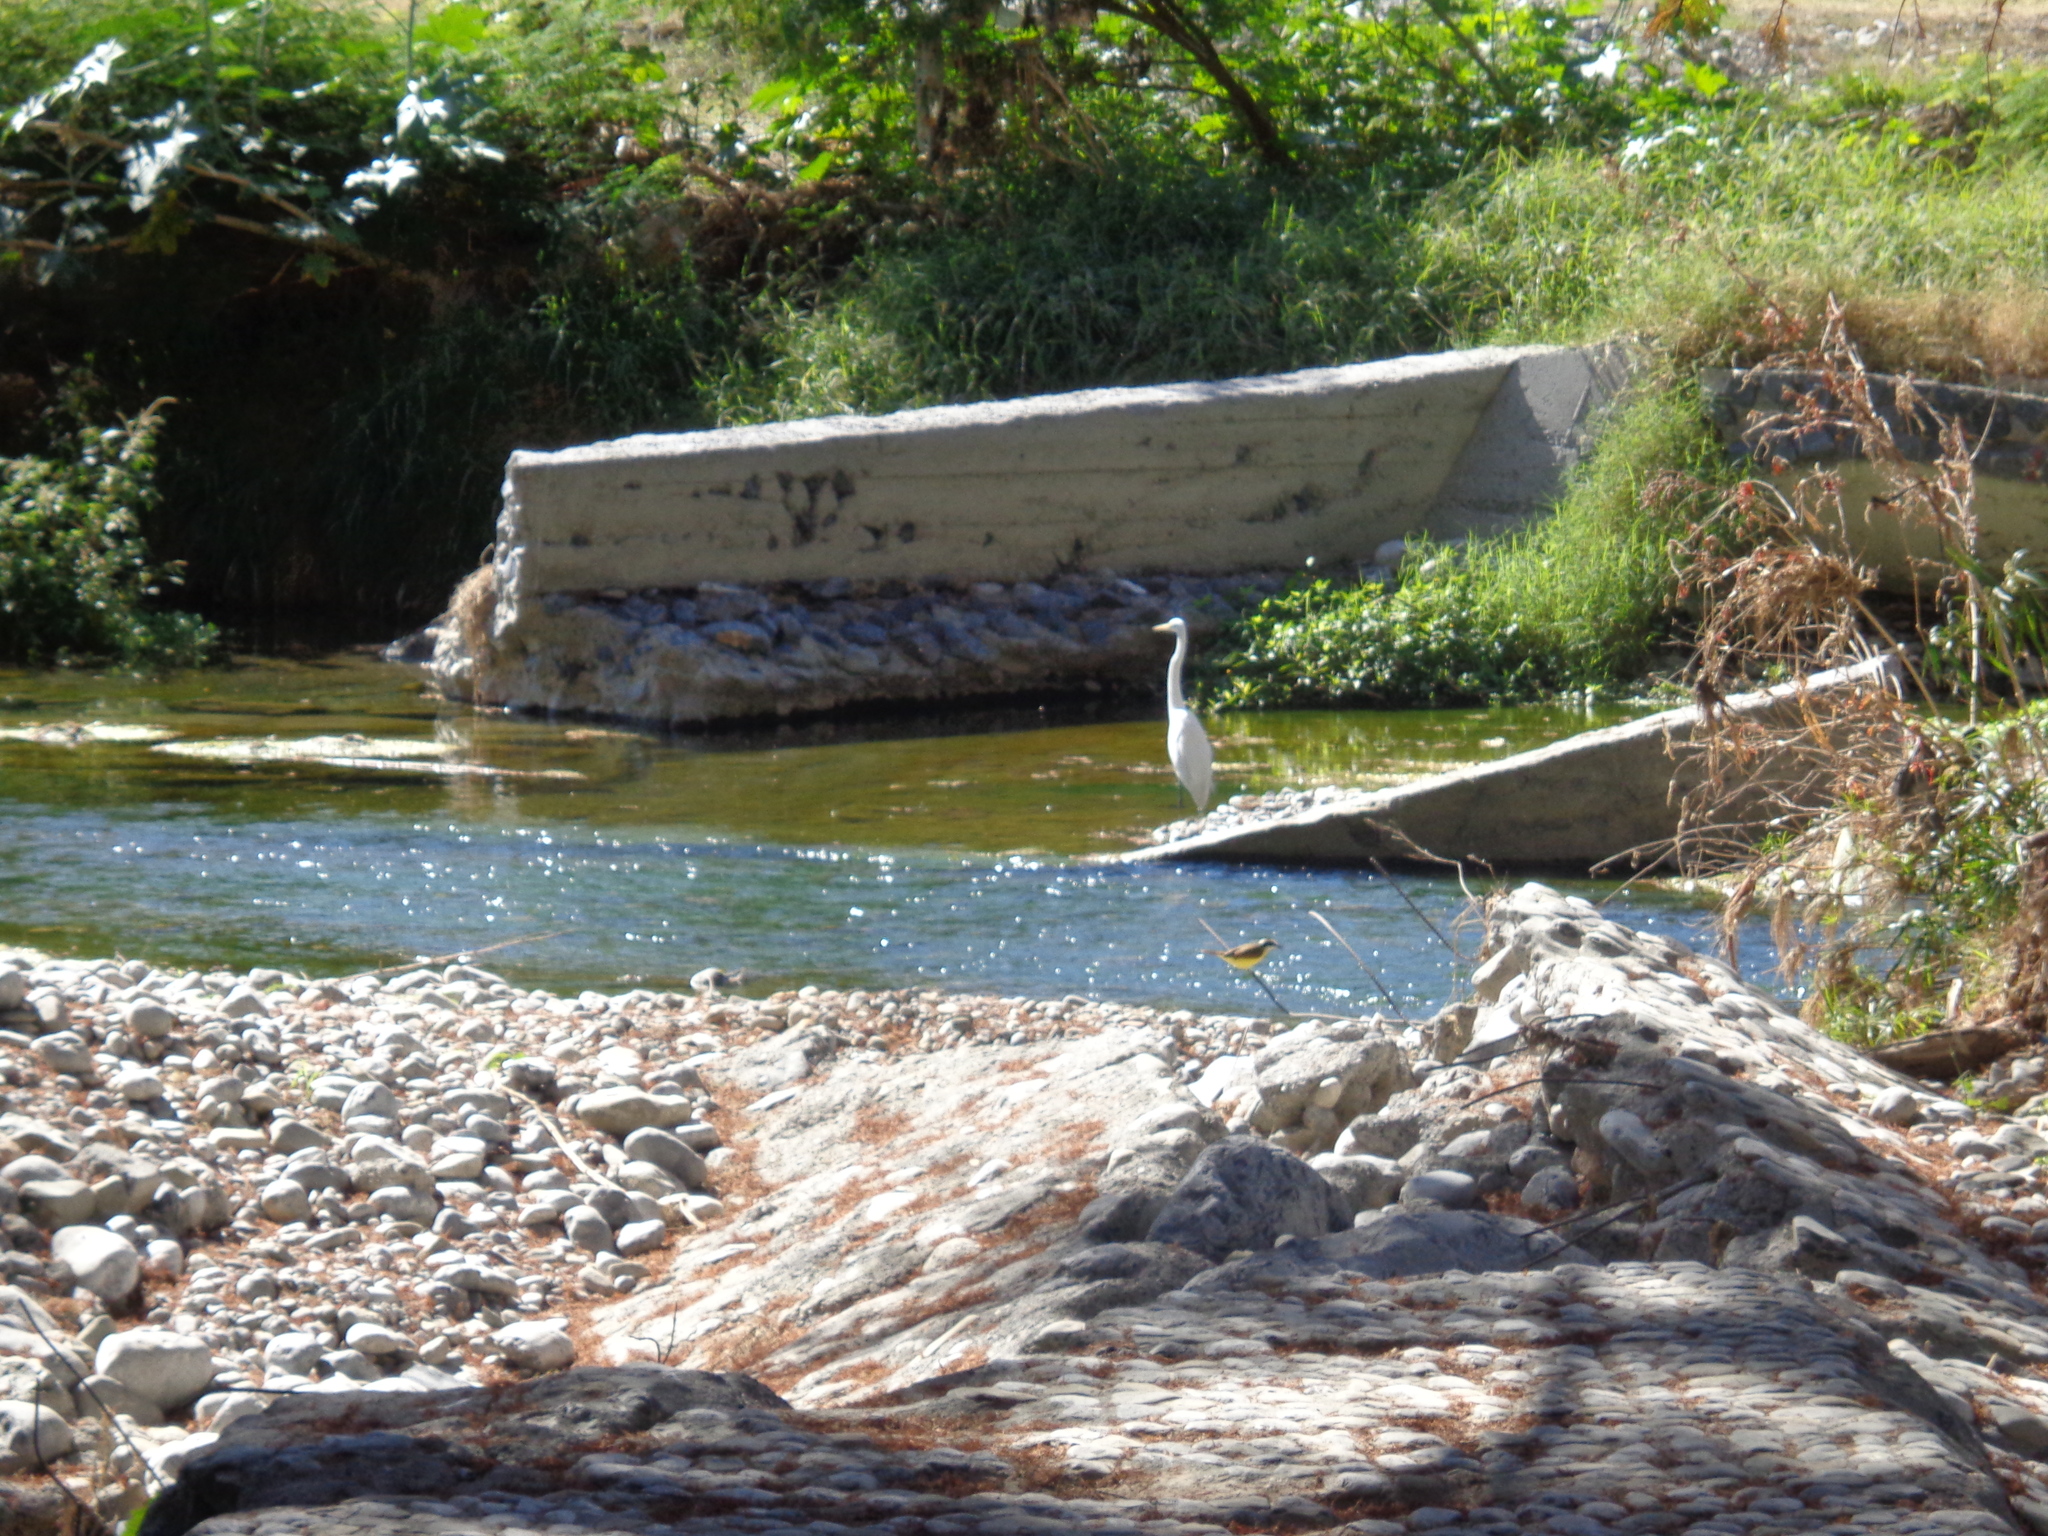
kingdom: Animalia
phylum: Chordata
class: Aves
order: Pelecaniformes
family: Ardeidae
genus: Ardea
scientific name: Ardea alba
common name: Great egret
